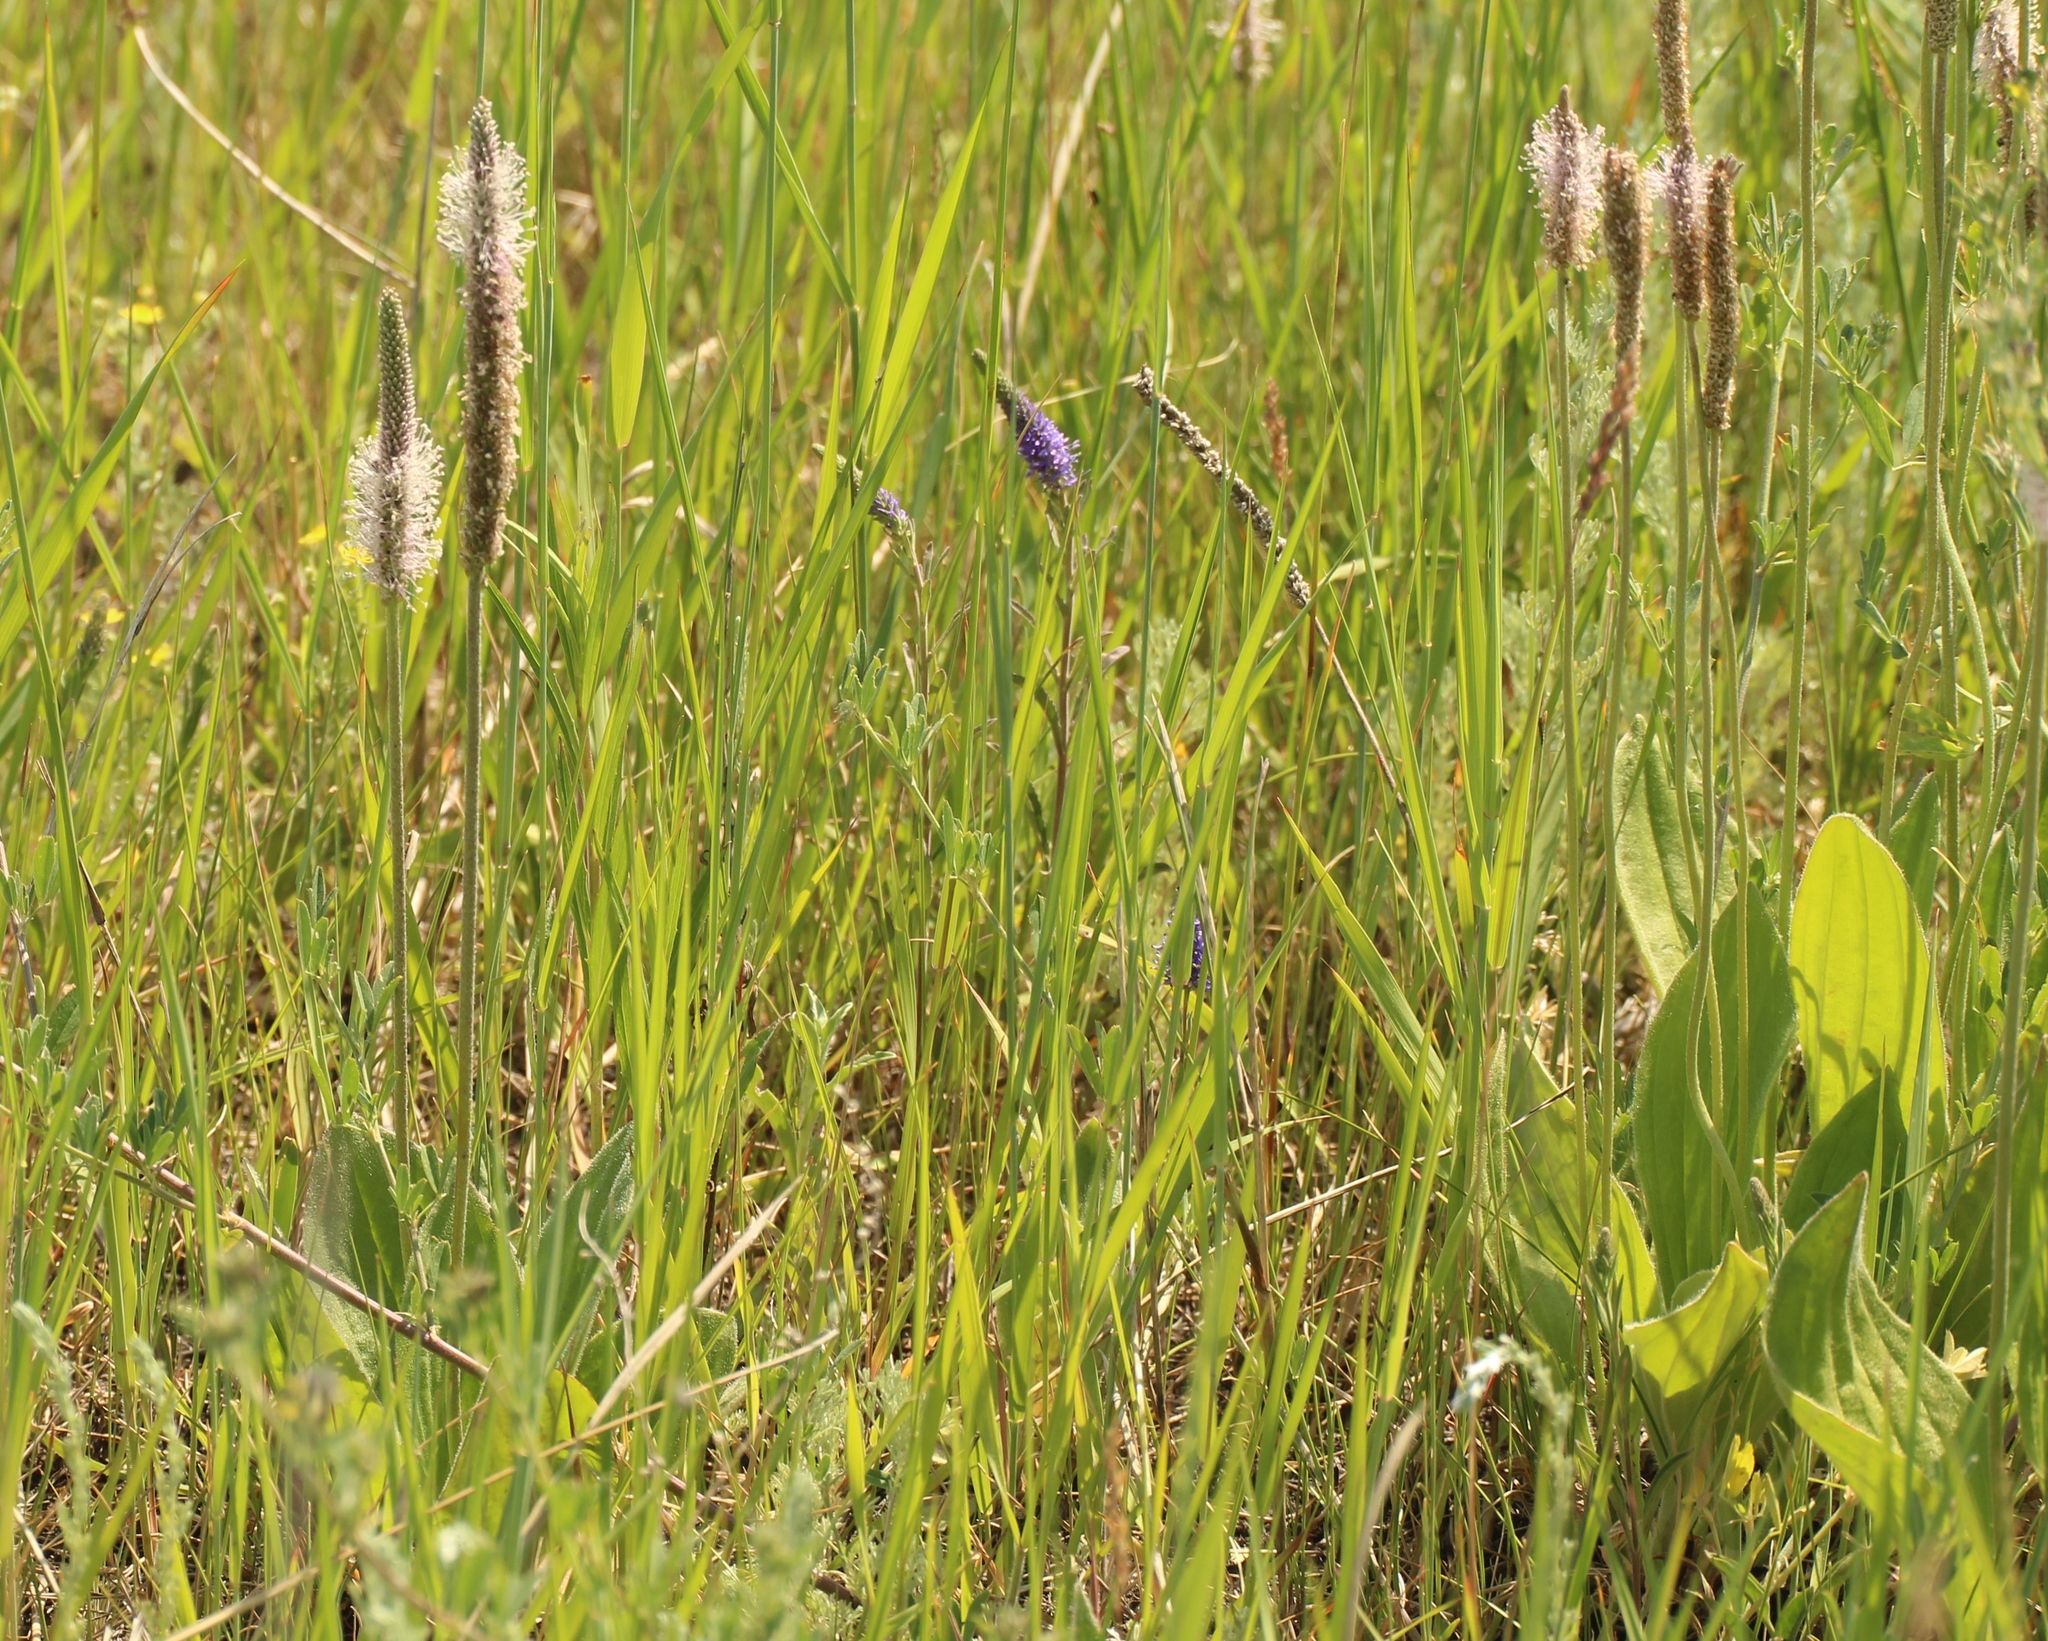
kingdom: Plantae
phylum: Tracheophyta
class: Magnoliopsida
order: Lamiales
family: Plantaginaceae
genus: Plantago
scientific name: Plantago maxima
